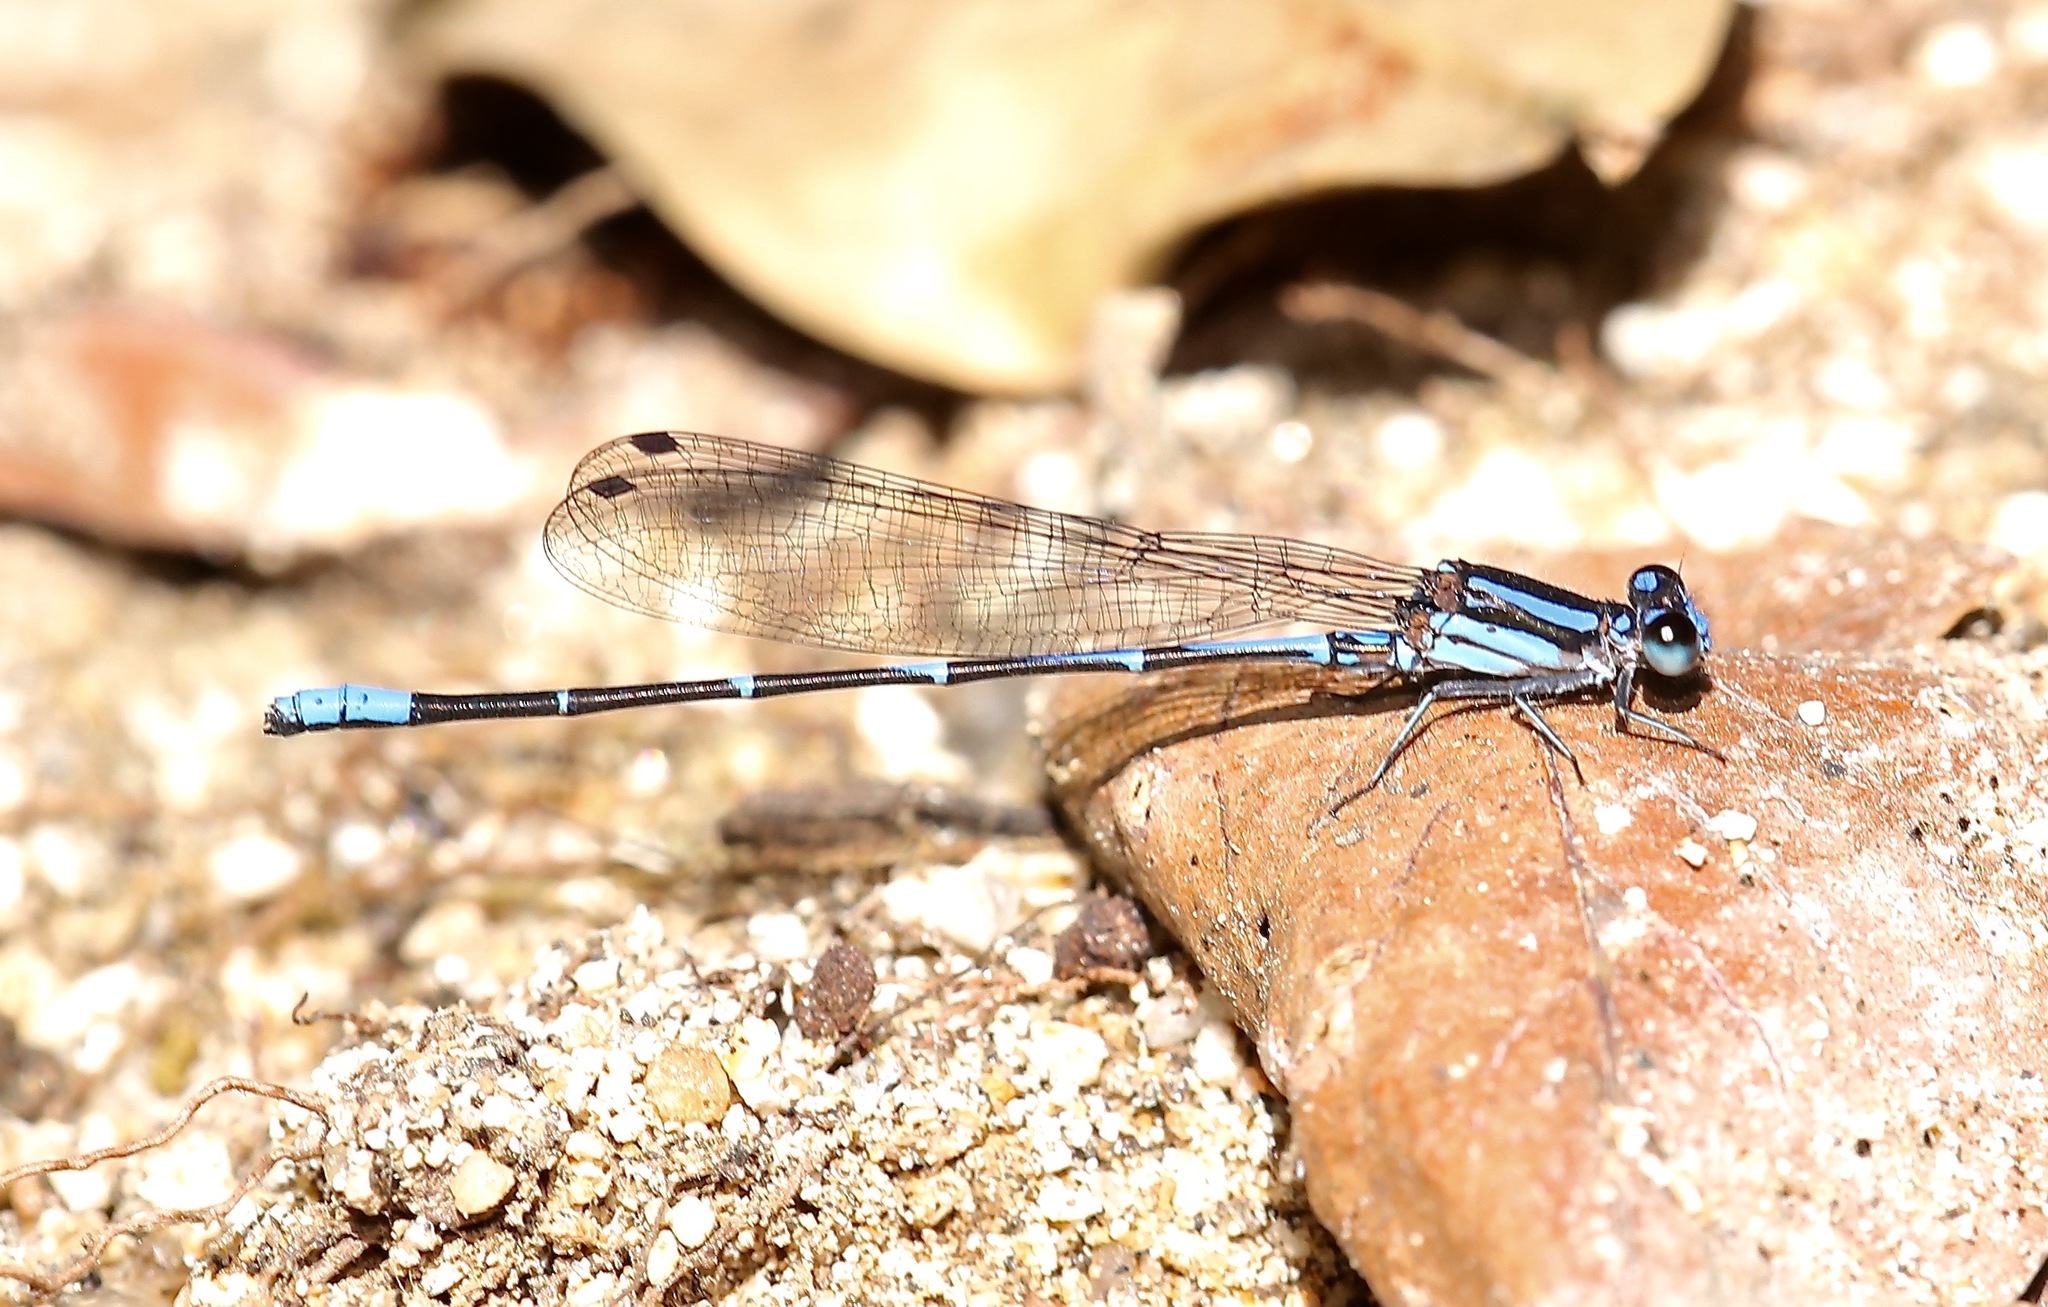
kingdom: Animalia
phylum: Arthropoda
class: Insecta
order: Odonata
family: Coenagrionidae
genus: Argia
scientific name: Argia oculata
